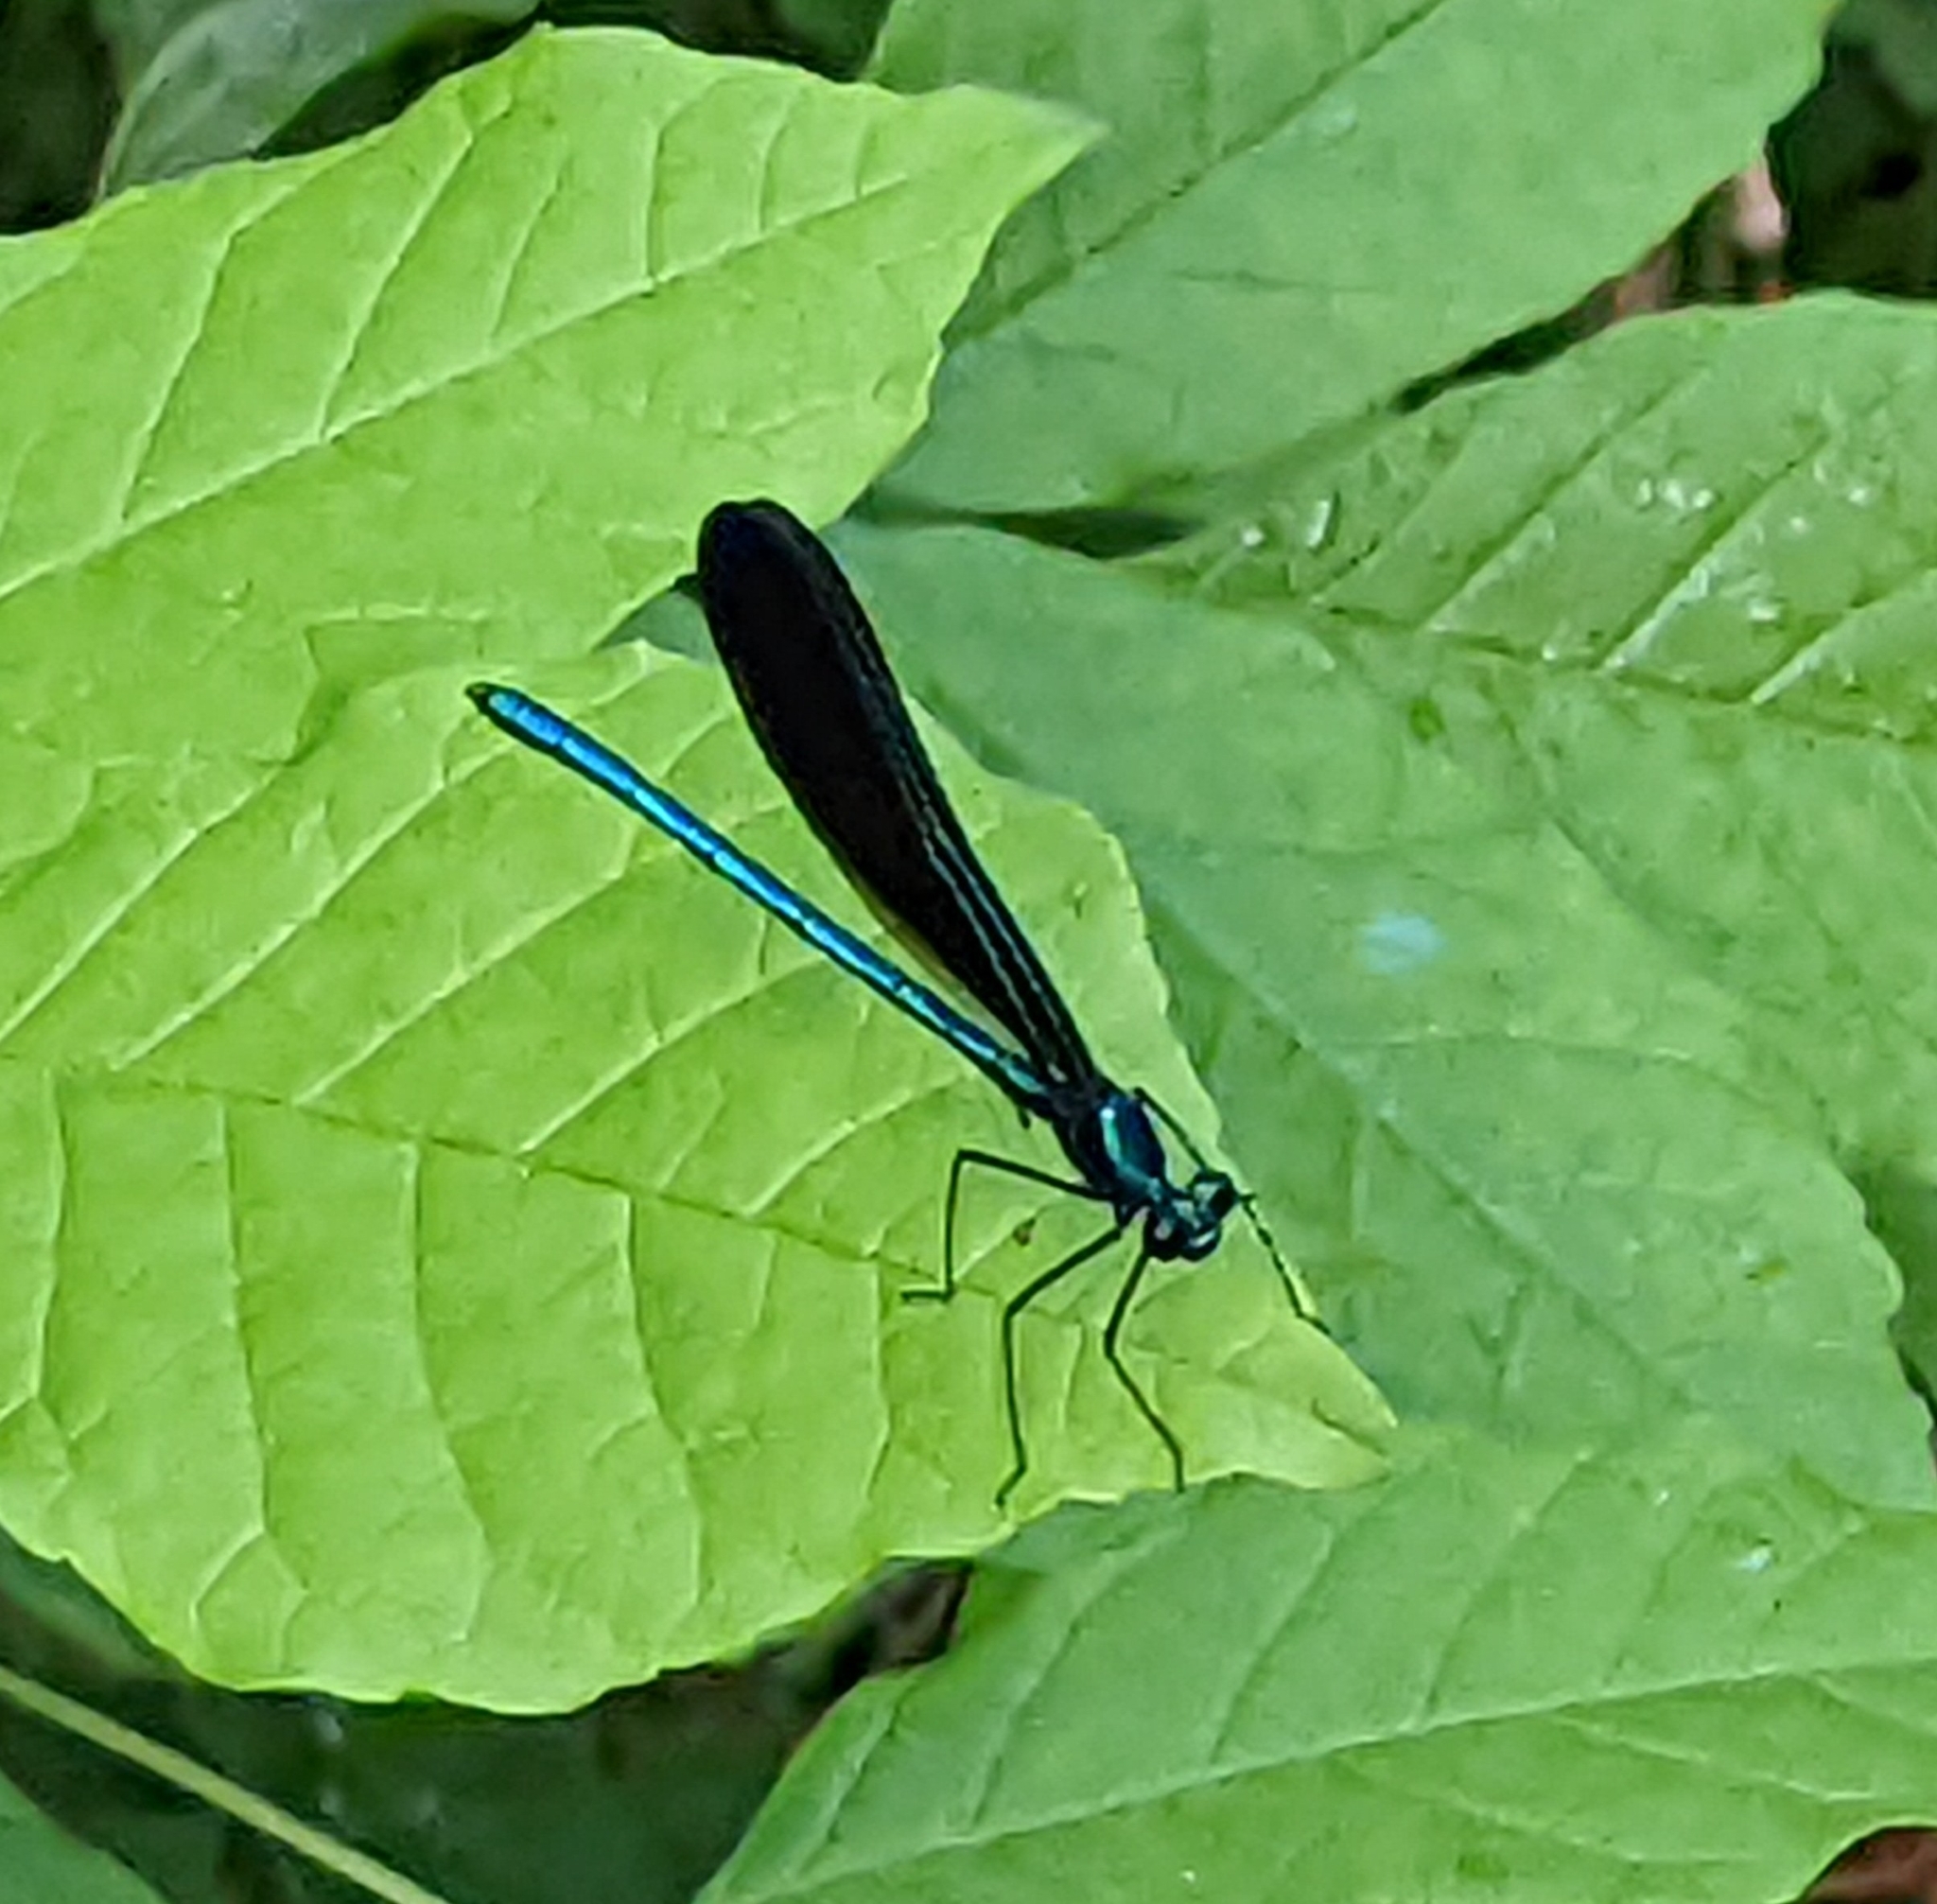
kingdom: Animalia
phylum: Arthropoda
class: Insecta
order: Odonata
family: Calopterygidae
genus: Calopteryx
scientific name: Calopteryx maculata
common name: Ebony jewelwing
